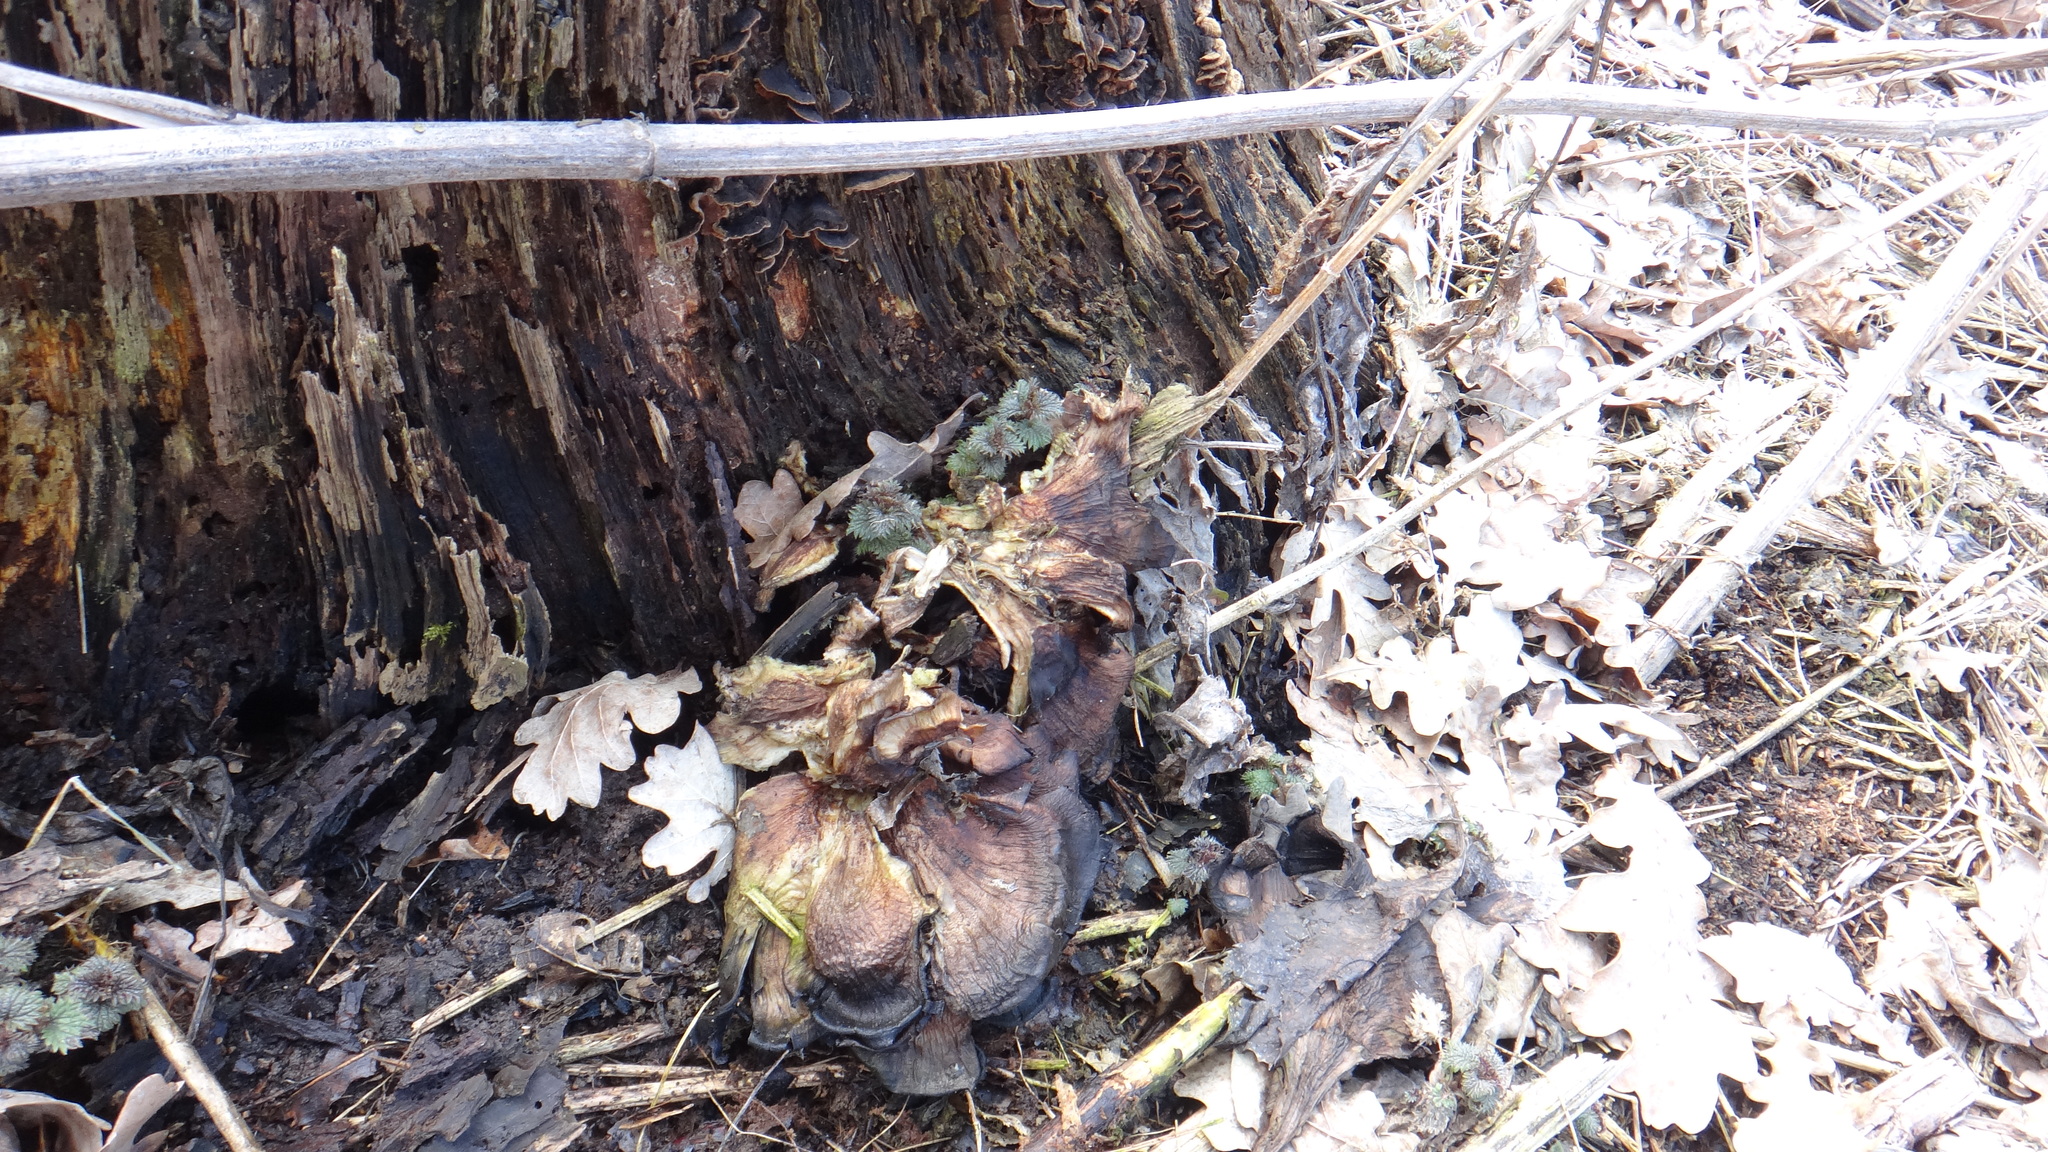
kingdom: Fungi
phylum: Basidiomycota
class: Agaricomycetes
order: Polyporales
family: Meripilaceae
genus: Meripilus
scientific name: Meripilus giganteus
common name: Giant polypore
